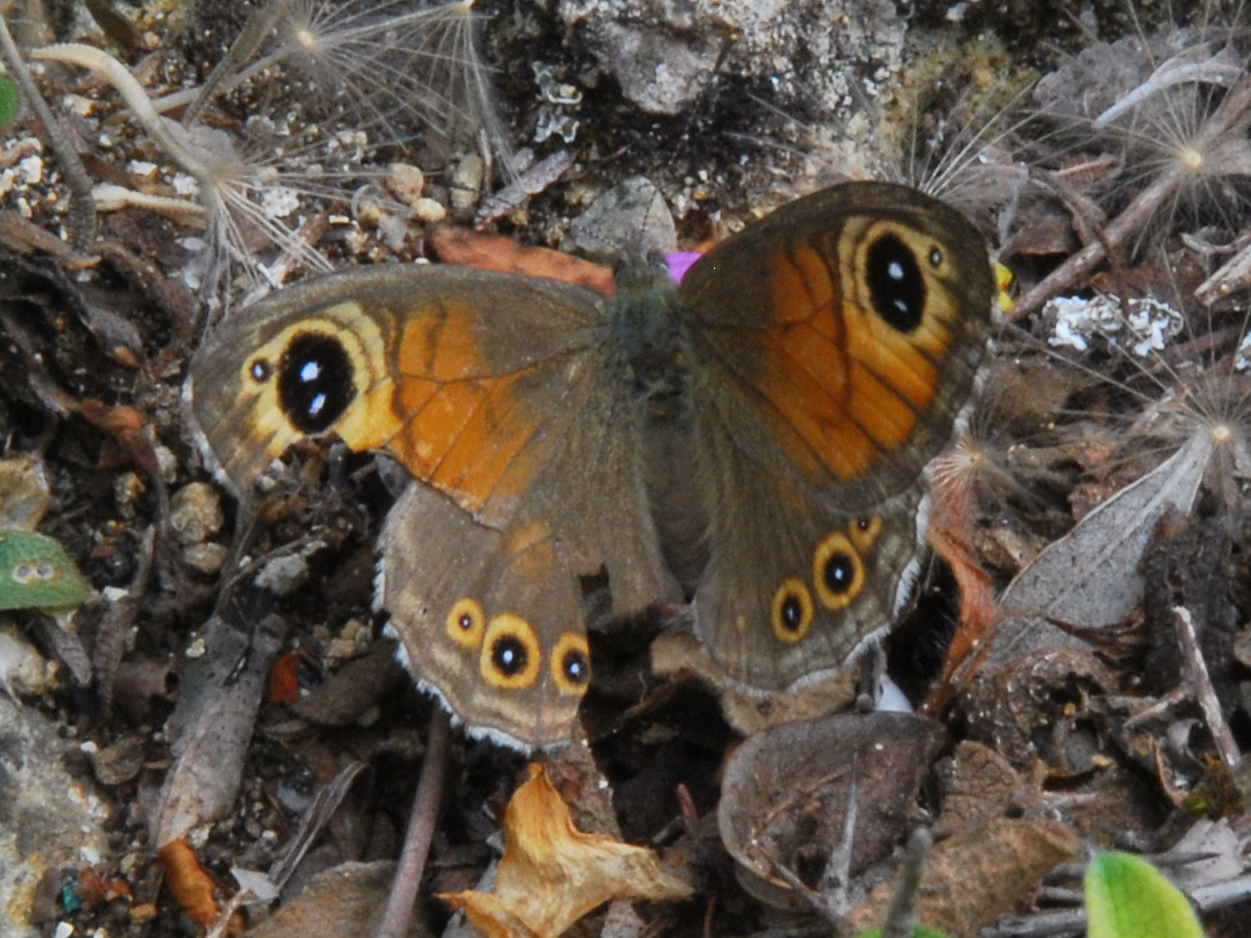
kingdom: Animalia
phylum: Arthropoda
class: Insecta
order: Lepidoptera
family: Nymphalidae
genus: Pararge
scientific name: Pararge Lasiommata maera
